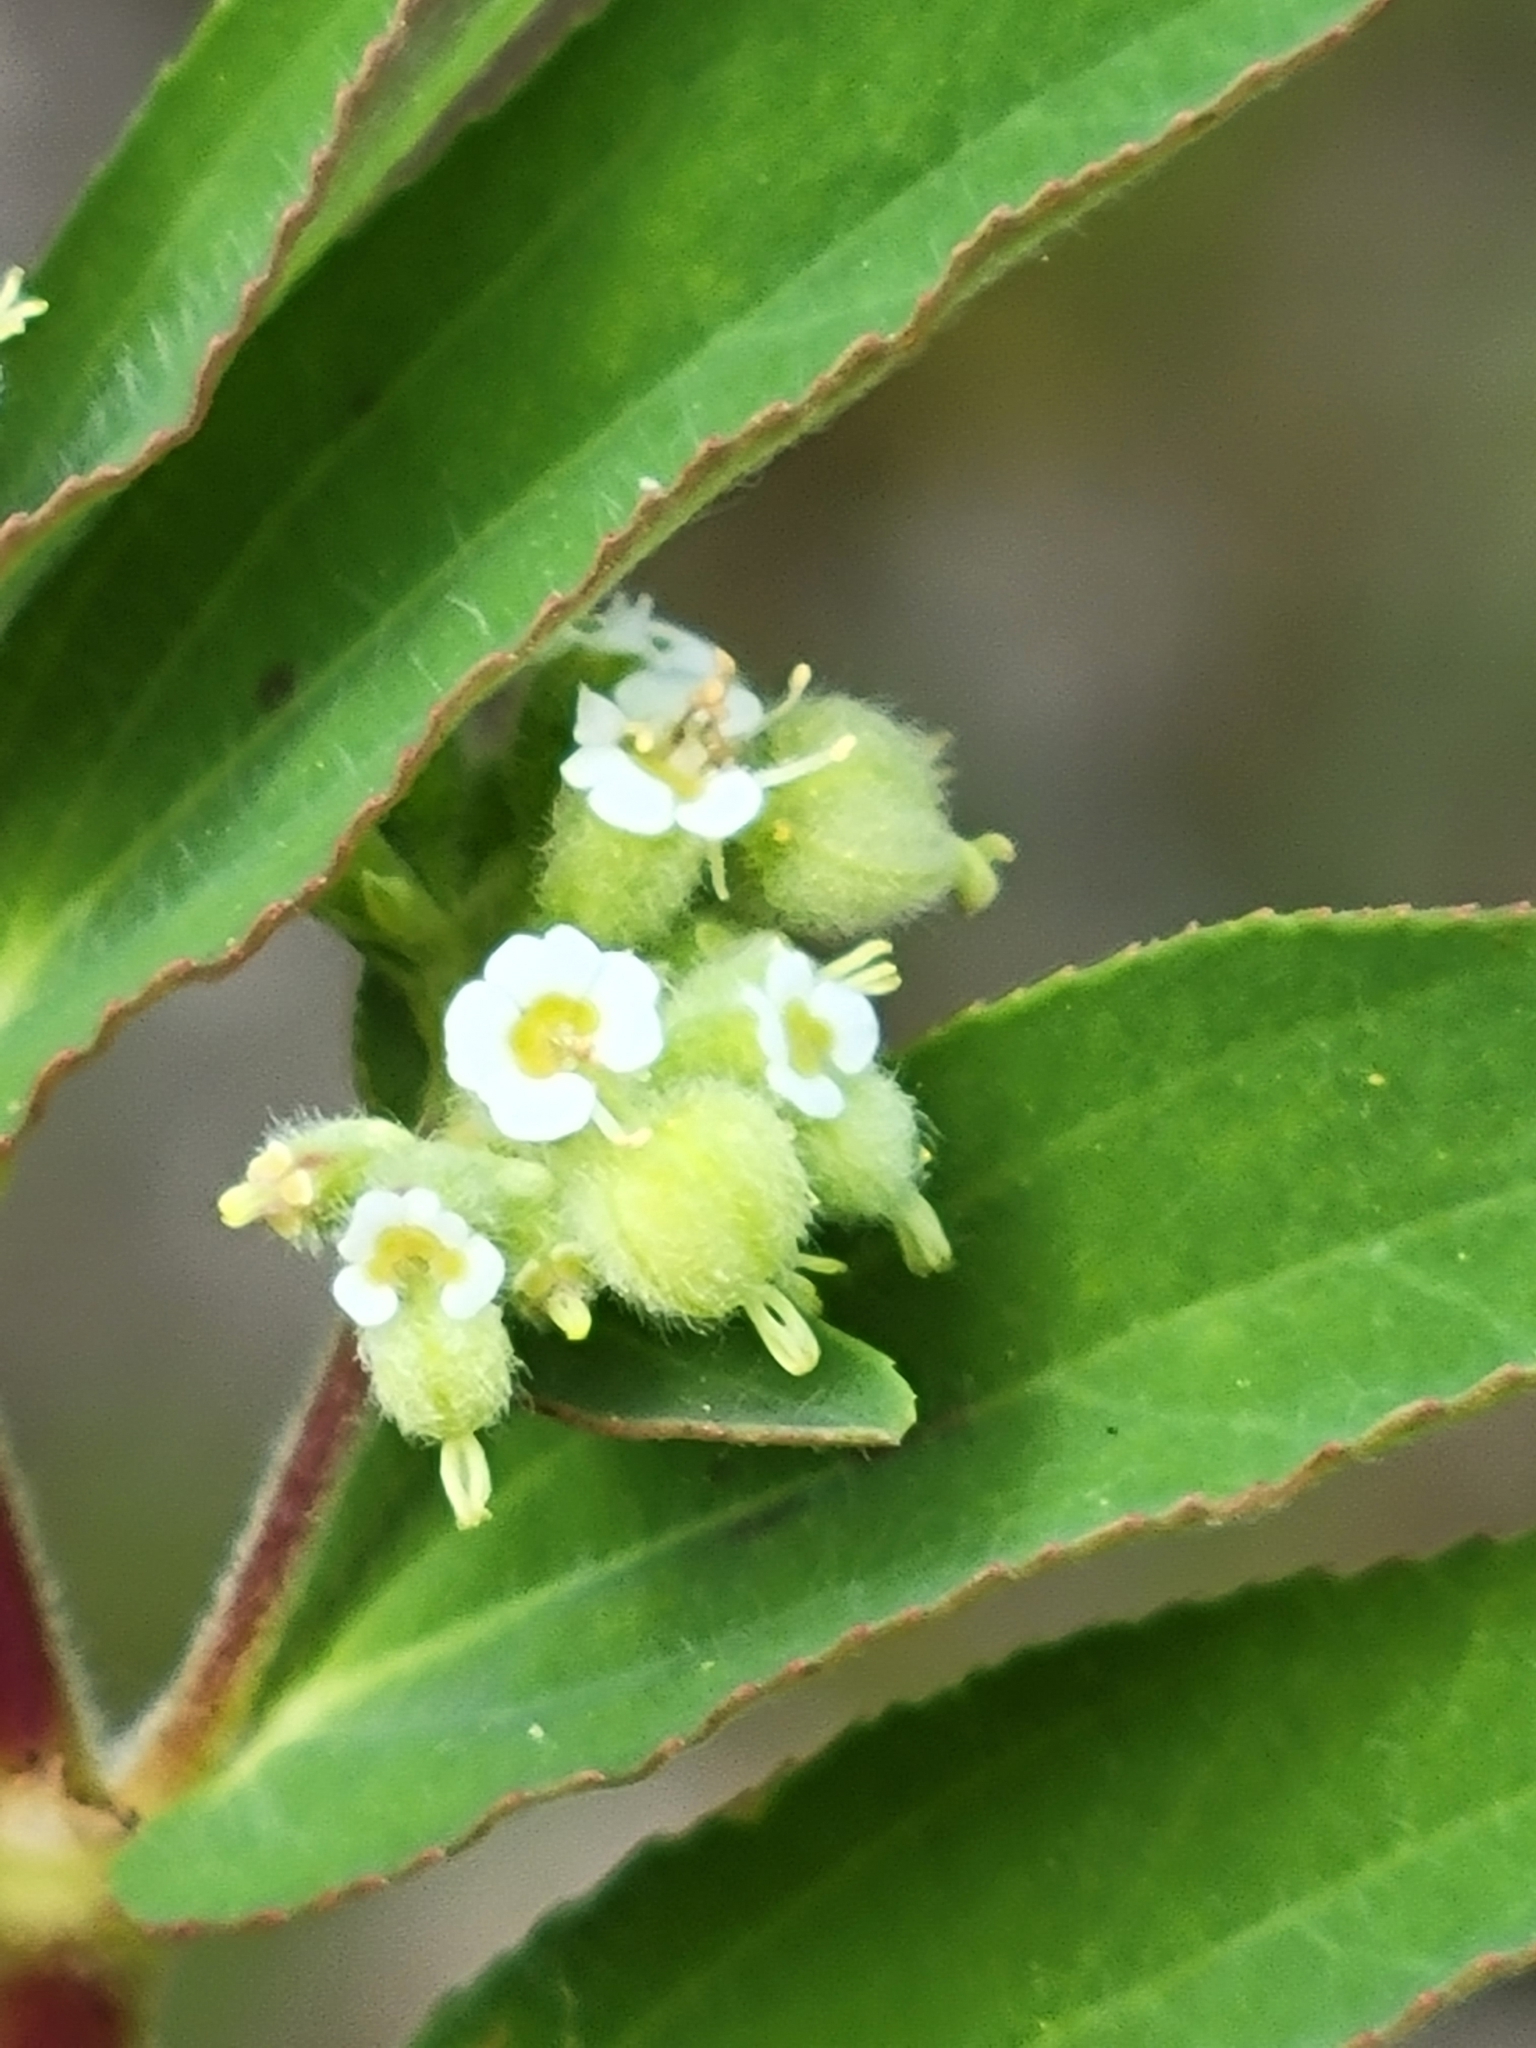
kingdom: Plantae
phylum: Tracheophyta
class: Magnoliopsida
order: Malpighiales
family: Euphorbiaceae
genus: Euphorbia
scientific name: Euphorbia lasiocarpa
